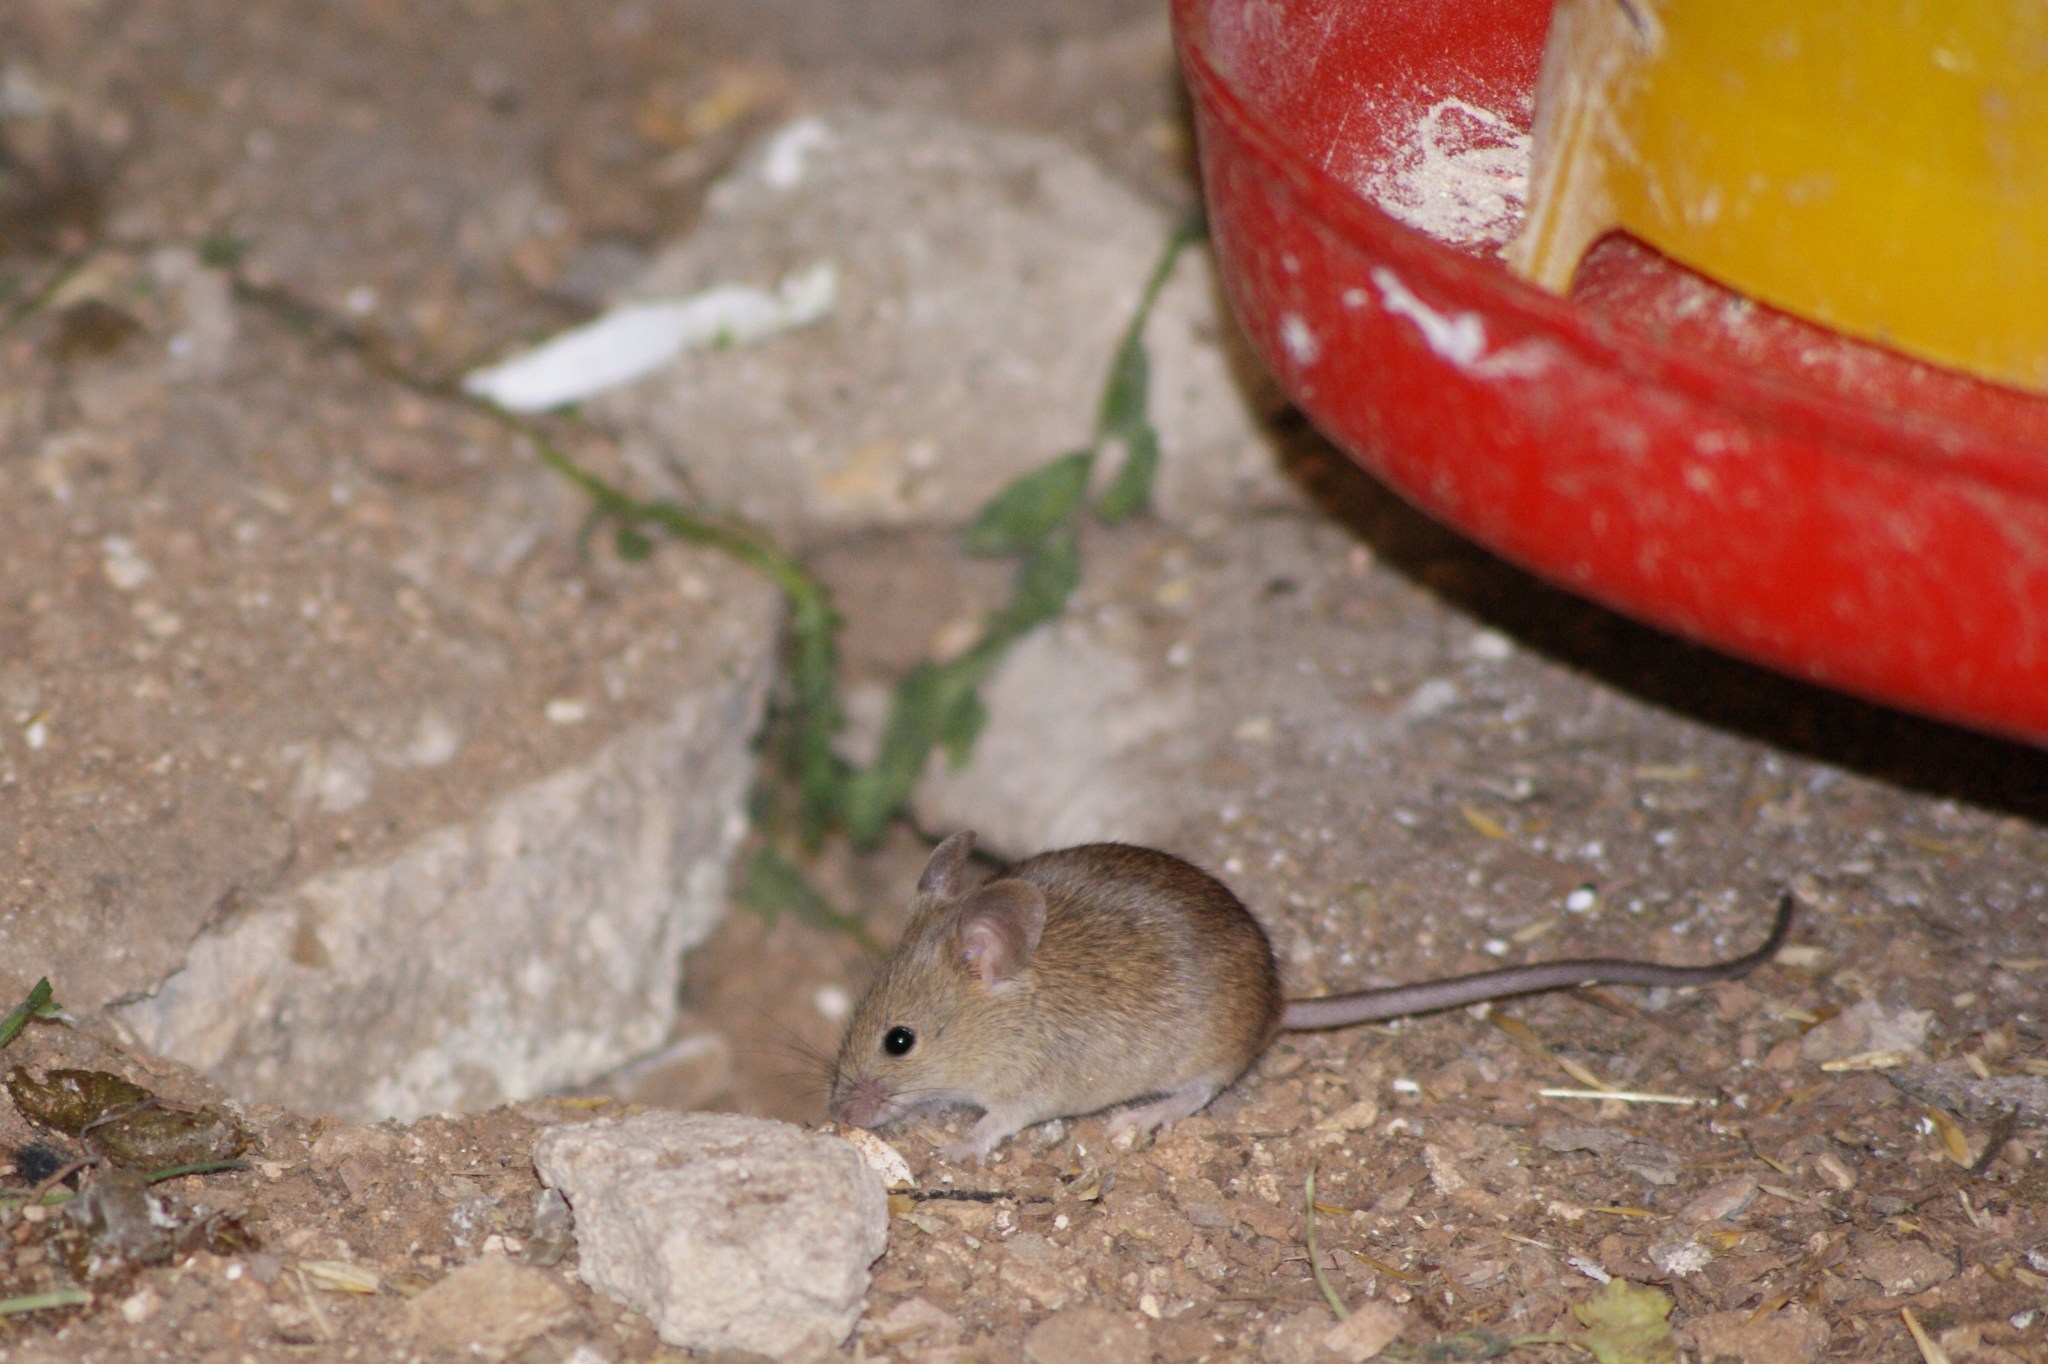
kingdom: Animalia
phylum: Chordata
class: Mammalia
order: Rodentia
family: Muridae
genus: Mus
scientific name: Mus musculus
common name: House mouse
